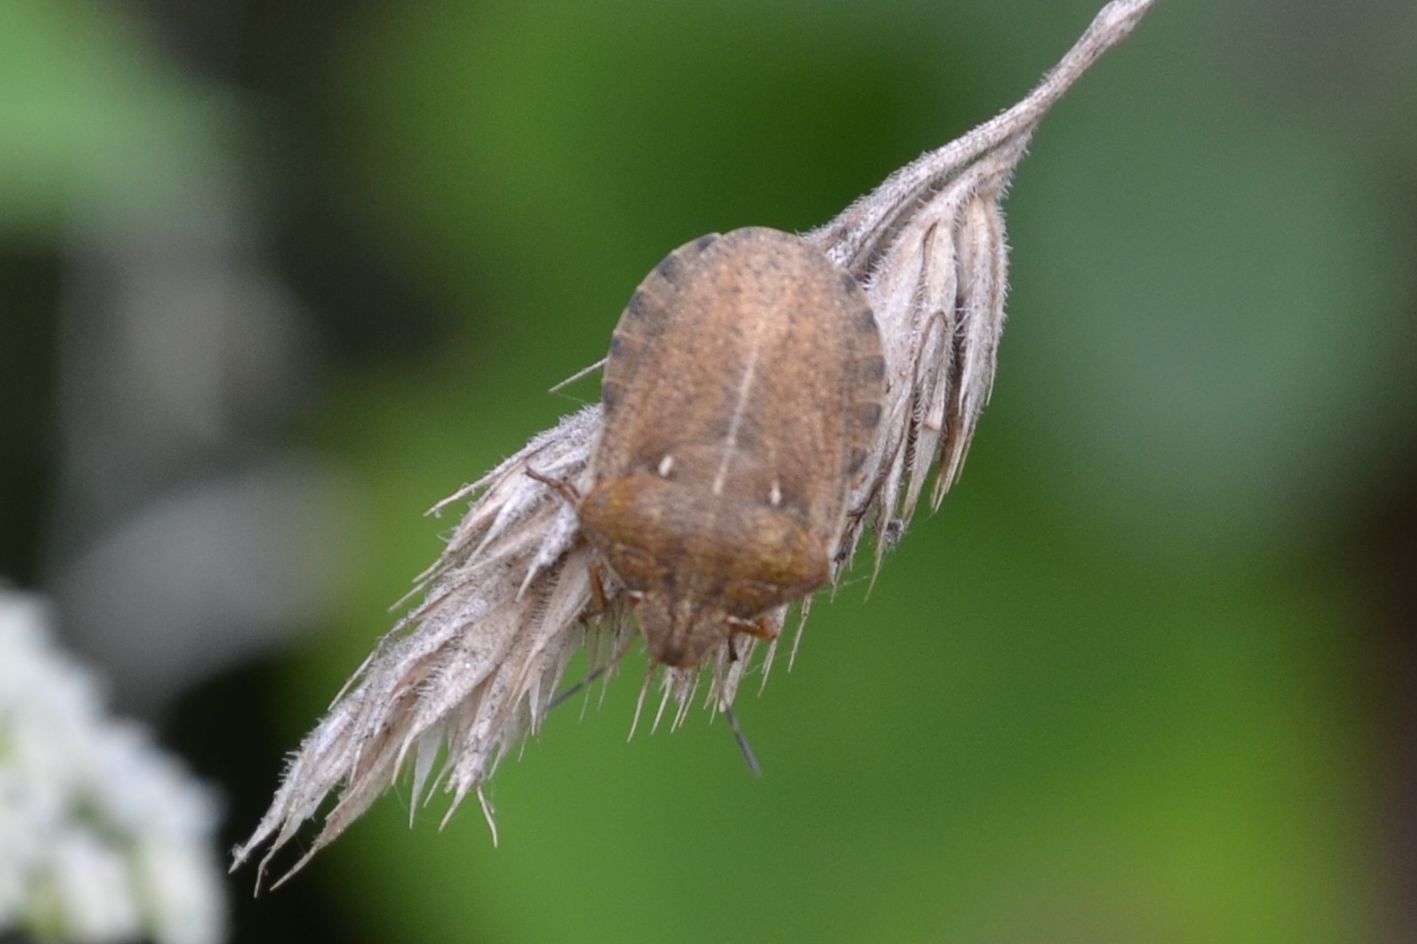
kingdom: Animalia
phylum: Arthropoda
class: Insecta
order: Hemiptera
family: Scutelleridae
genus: Eurygaster
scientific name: Eurygaster testudinaria
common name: Tortoise bug
